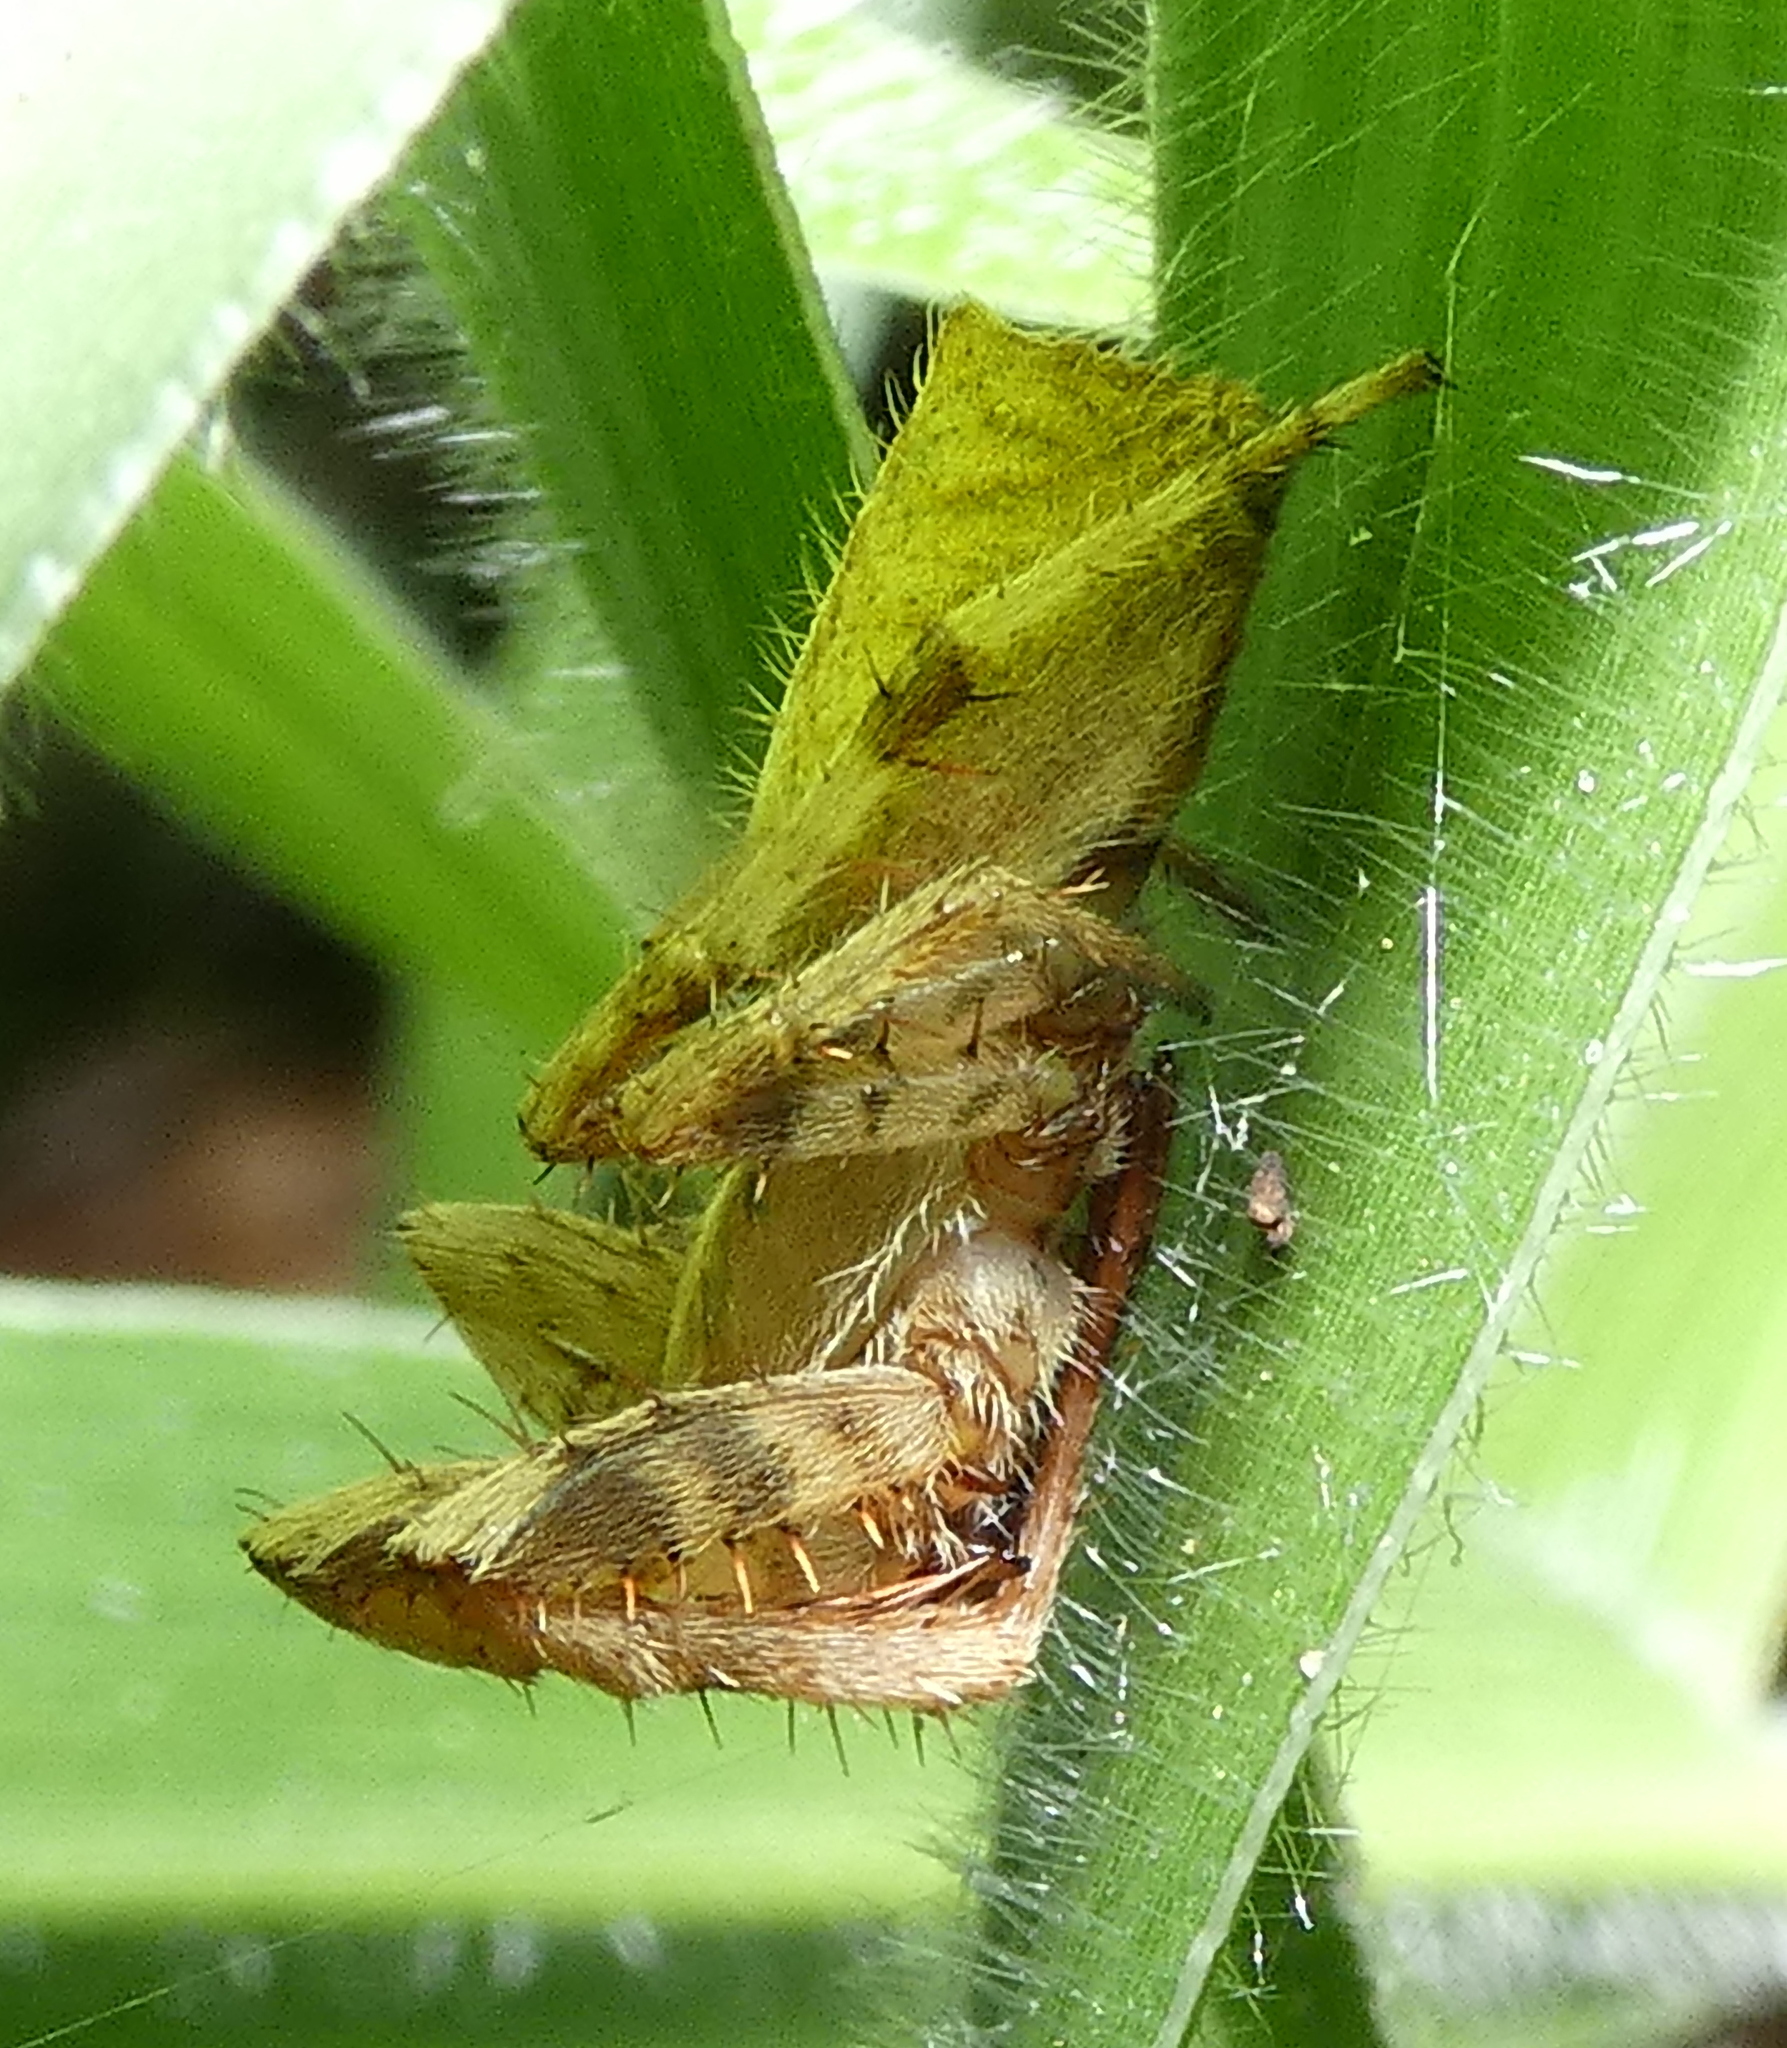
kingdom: Animalia
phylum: Arthropoda
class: Arachnida
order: Araneae
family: Araneidae
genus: Eriophora
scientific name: Eriophora edax
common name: Orb weavers
